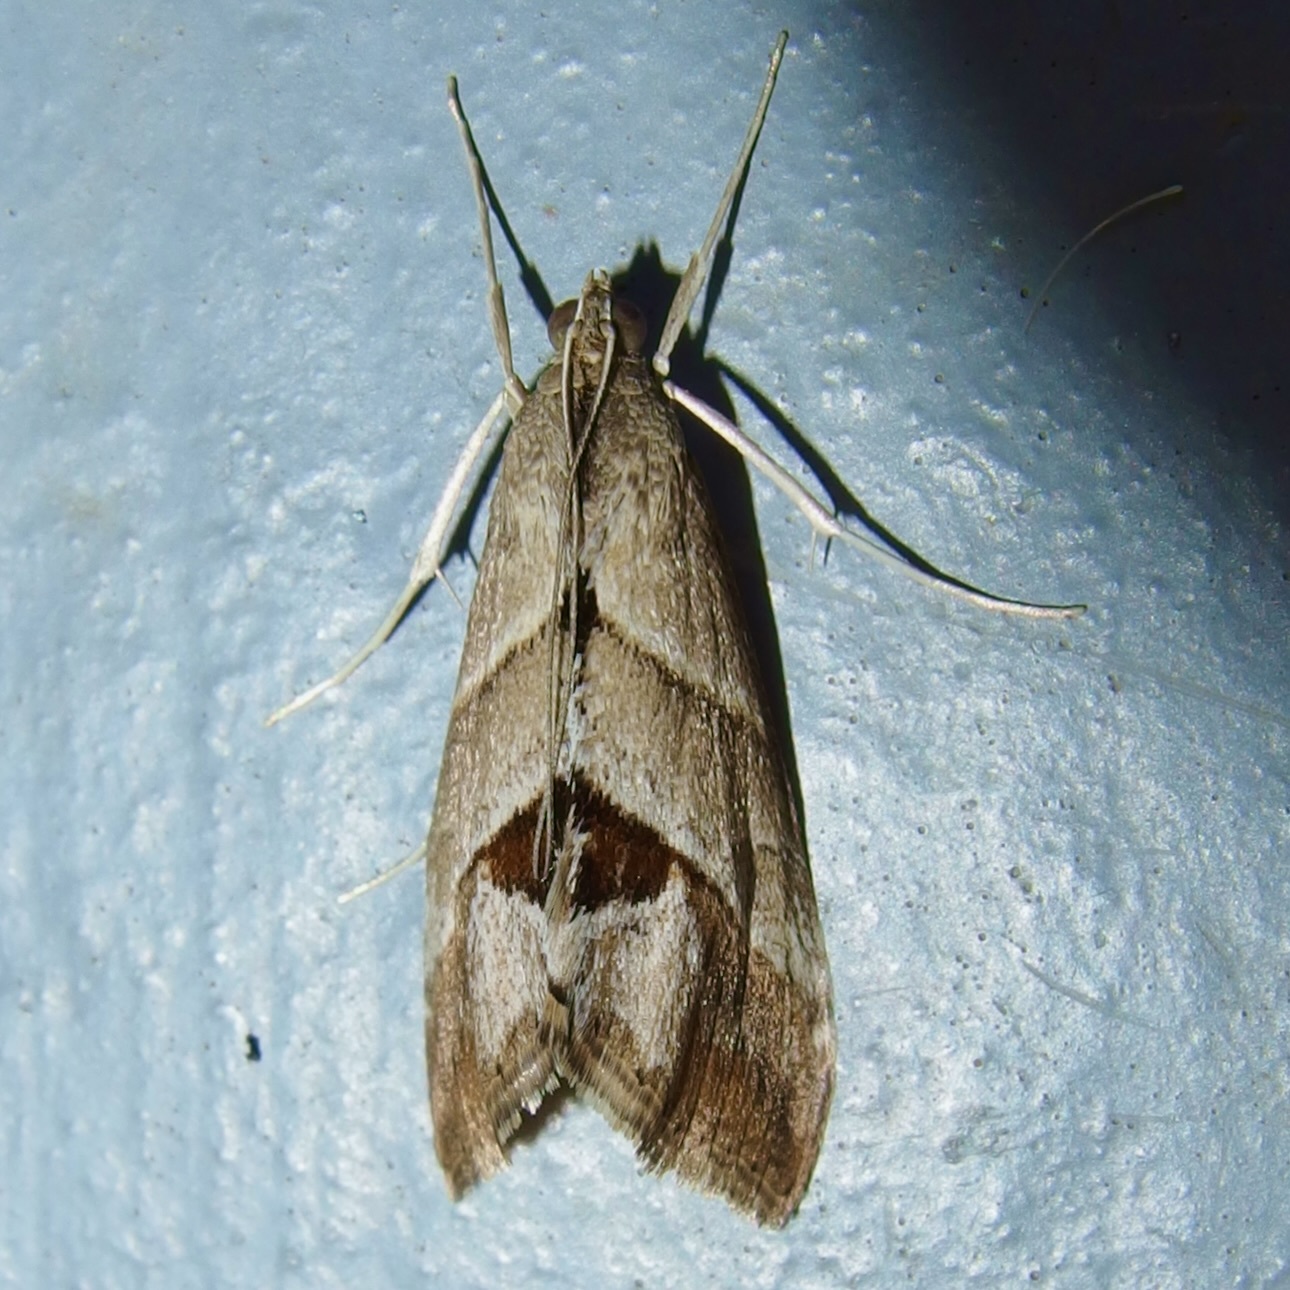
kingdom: Animalia
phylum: Arthropoda
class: Insecta
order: Lepidoptera
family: Crambidae
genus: Evergestis
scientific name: Evergestis triangulalis
